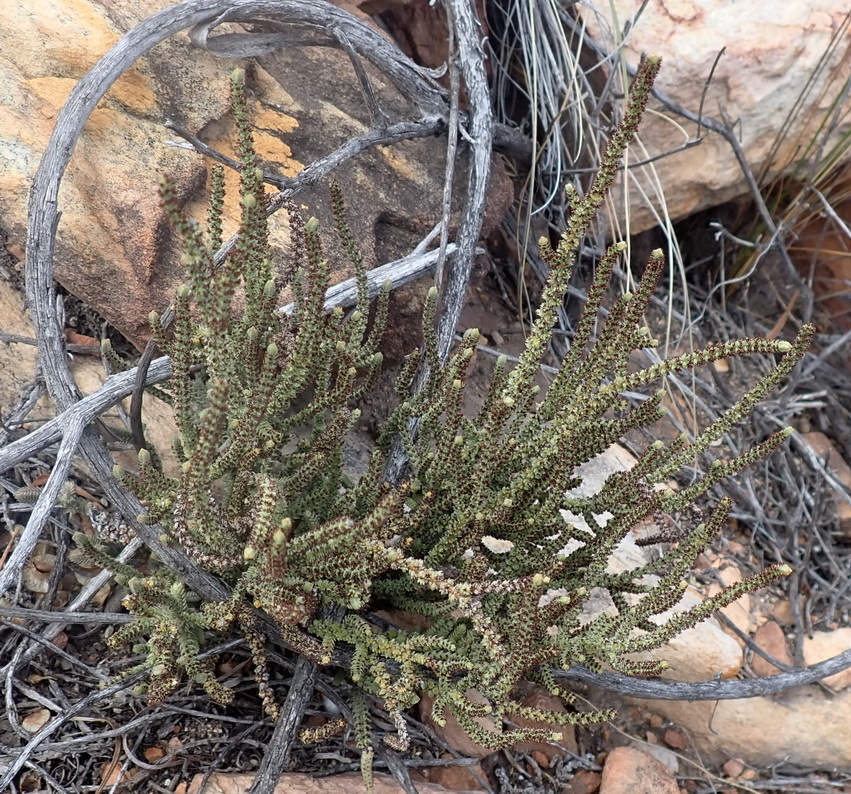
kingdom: Plantae
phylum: Tracheophyta
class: Magnoliopsida
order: Saxifragales
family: Crassulaceae
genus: Crassula
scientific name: Crassula muscosa
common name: Toy-cypress
